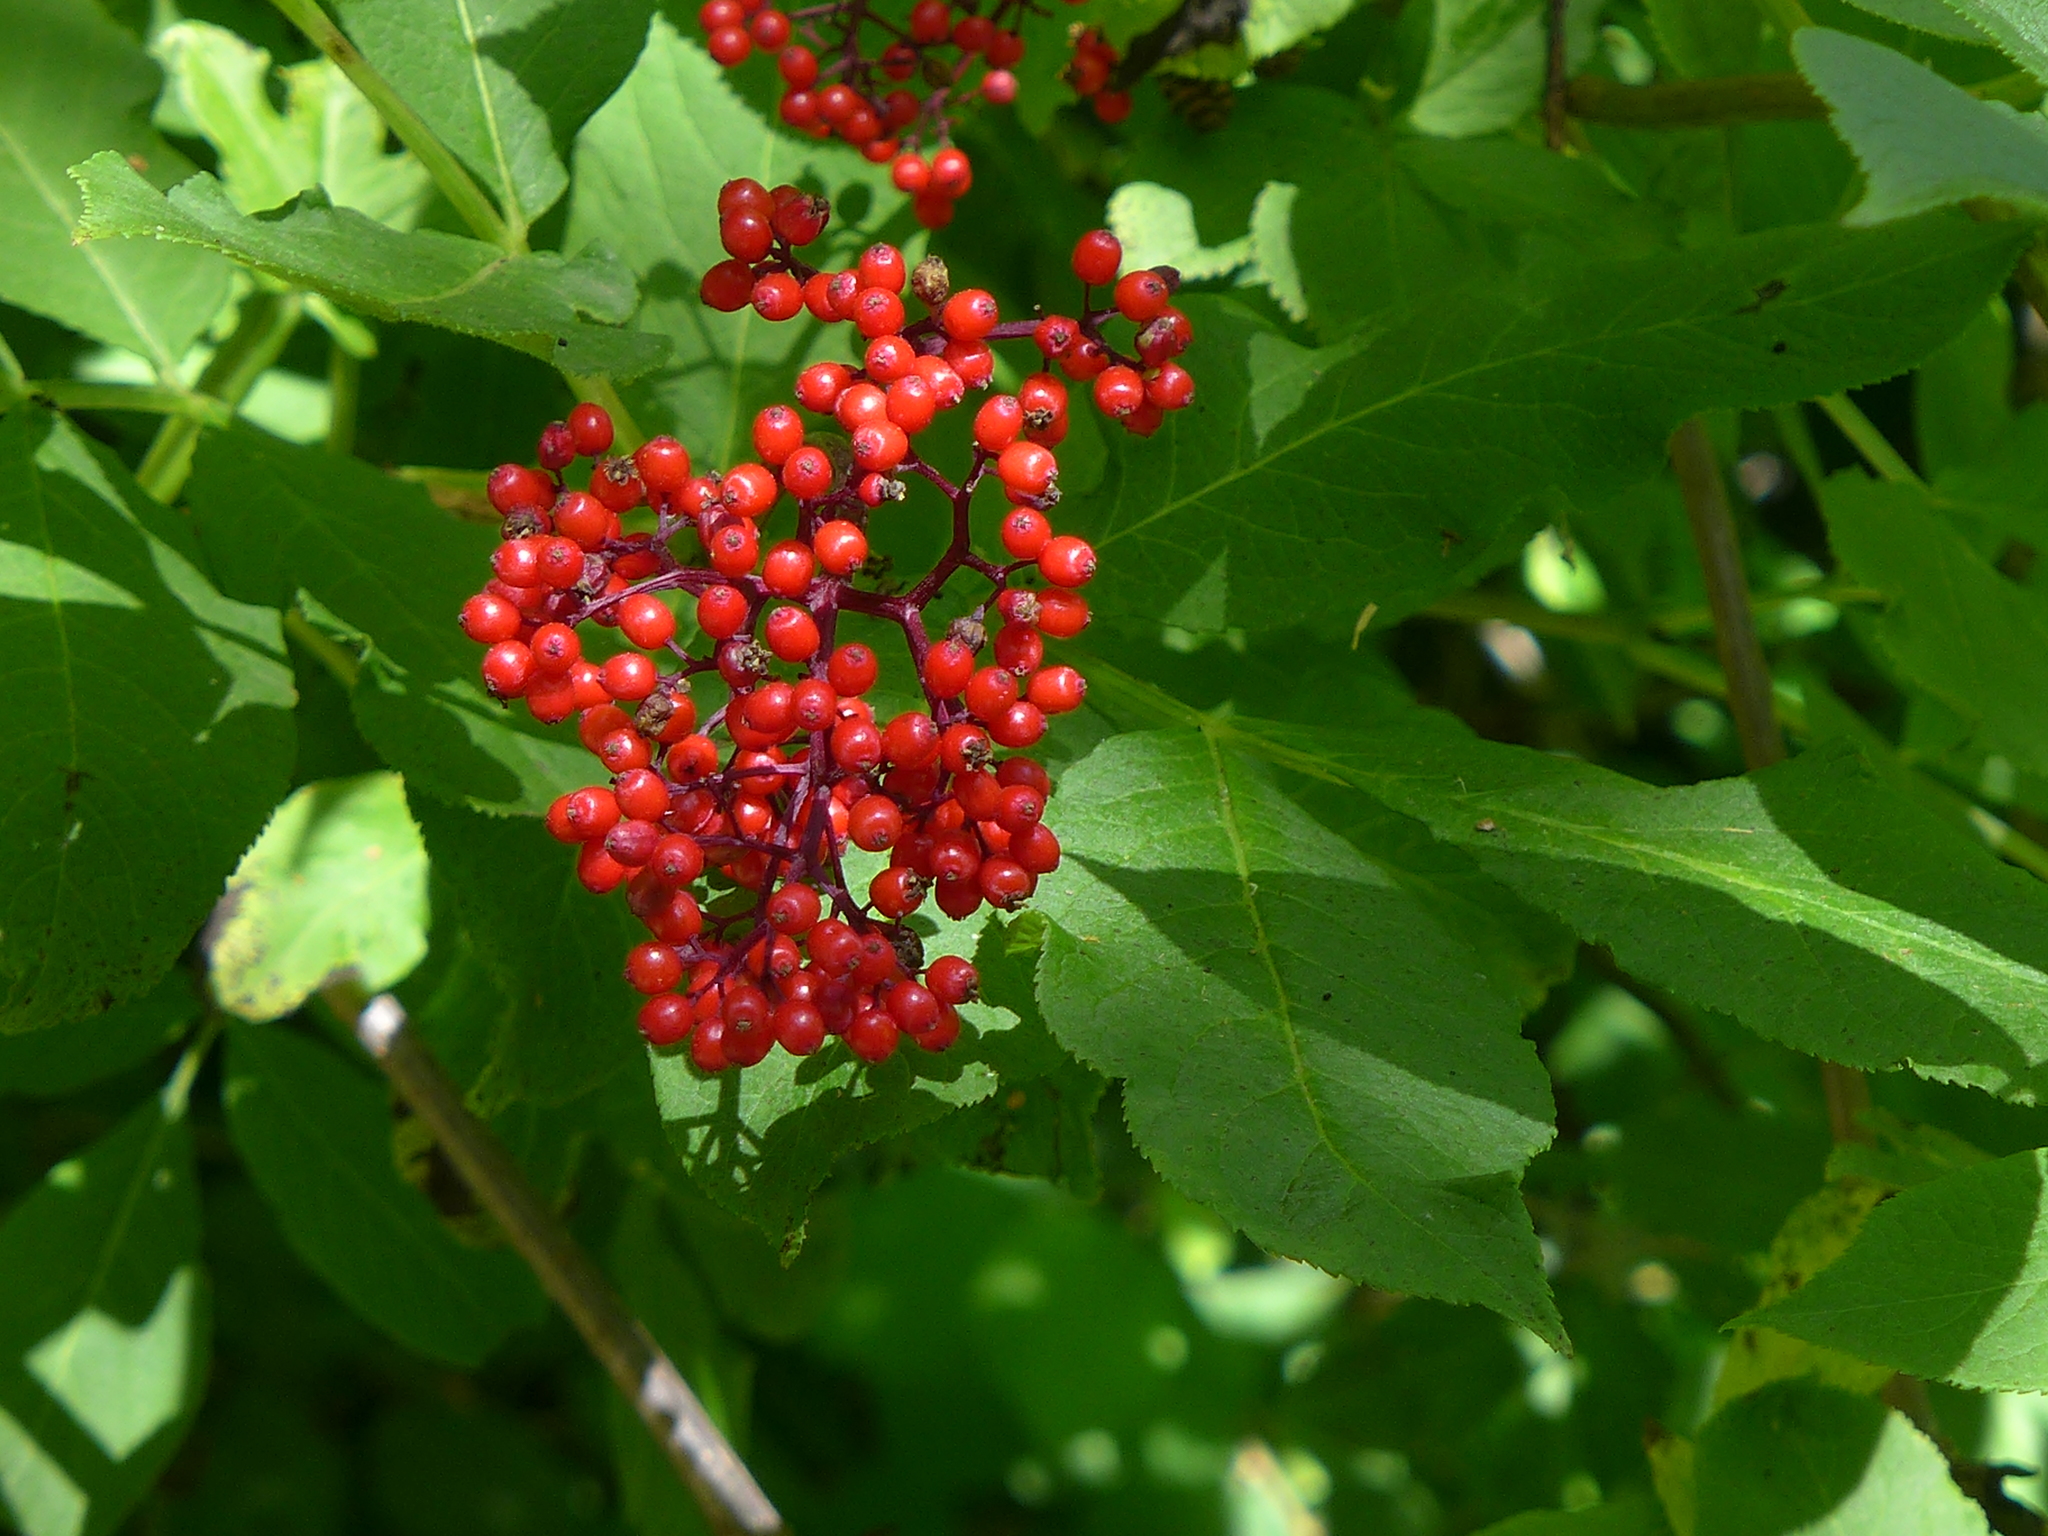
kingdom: Plantae
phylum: Tracheophyta
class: Magnoliopsida
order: Dipsacales
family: Viburnaceae
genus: Sambucus
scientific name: Sambucus racemosa
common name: Red-berried elder
